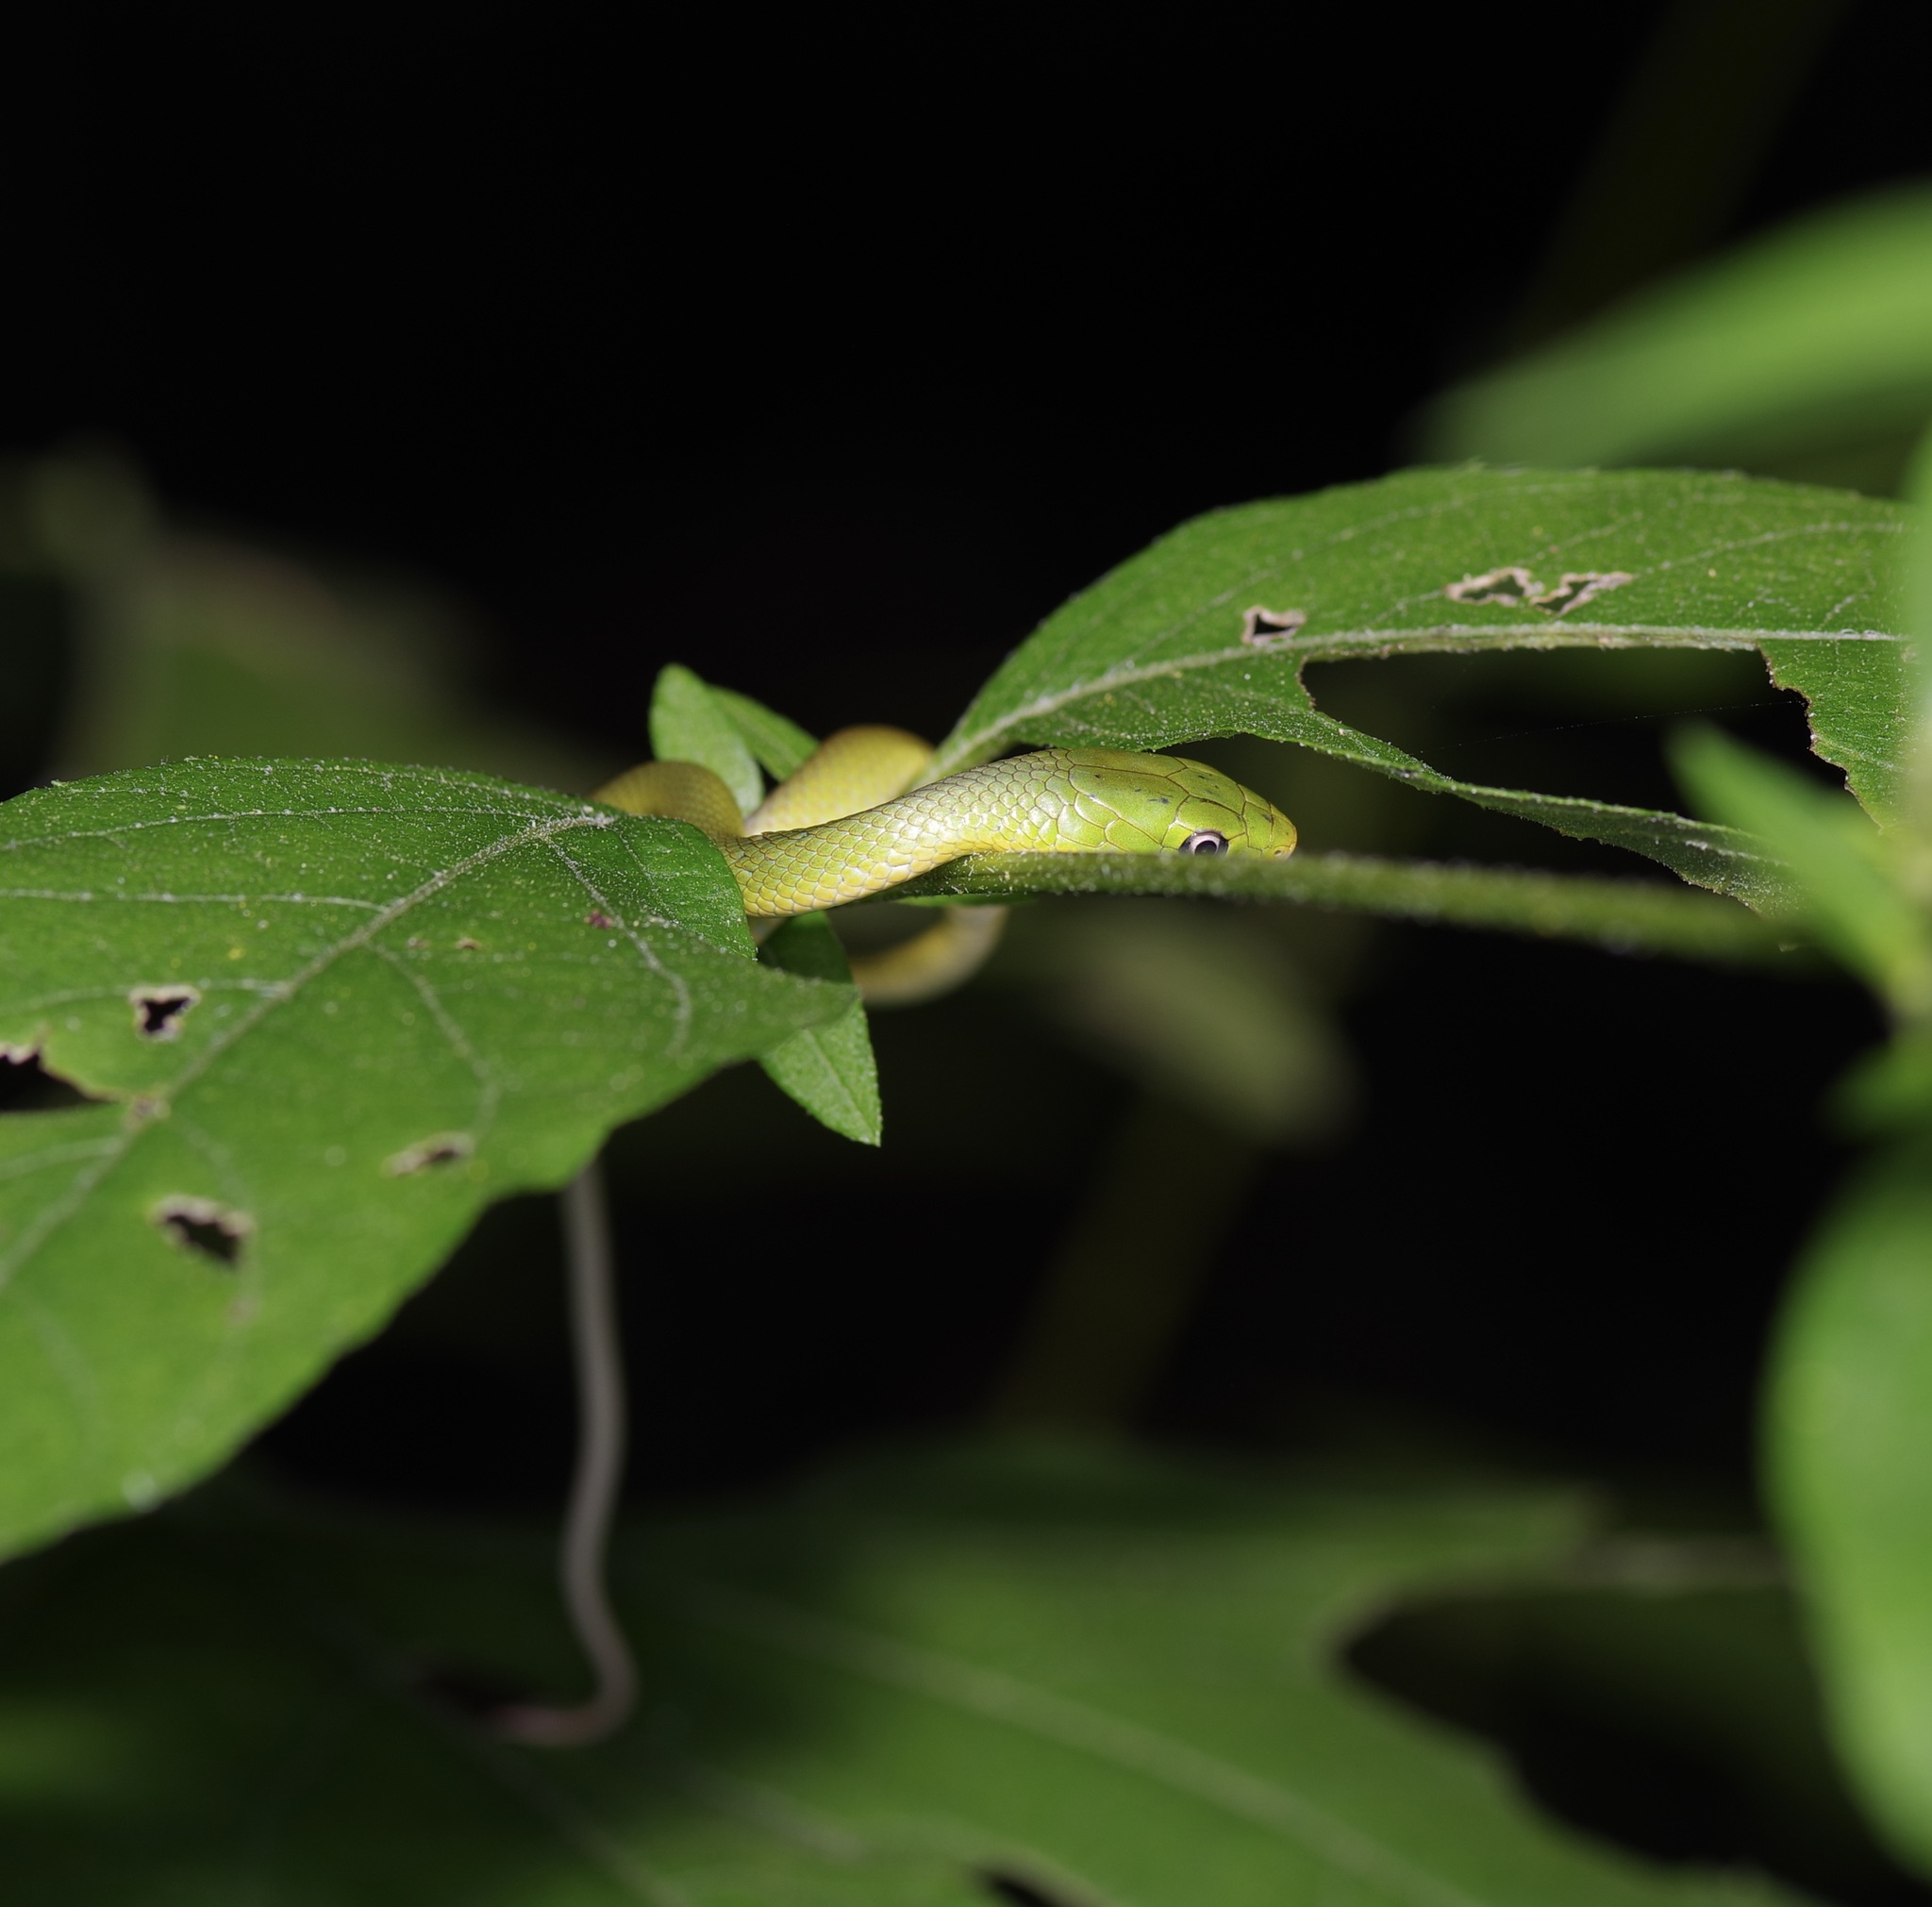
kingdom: Animalia
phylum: Chordata
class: Squamata
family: Colubridae
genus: Opheodrys
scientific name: Opheodrys aestivus
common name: Rough greensnake
